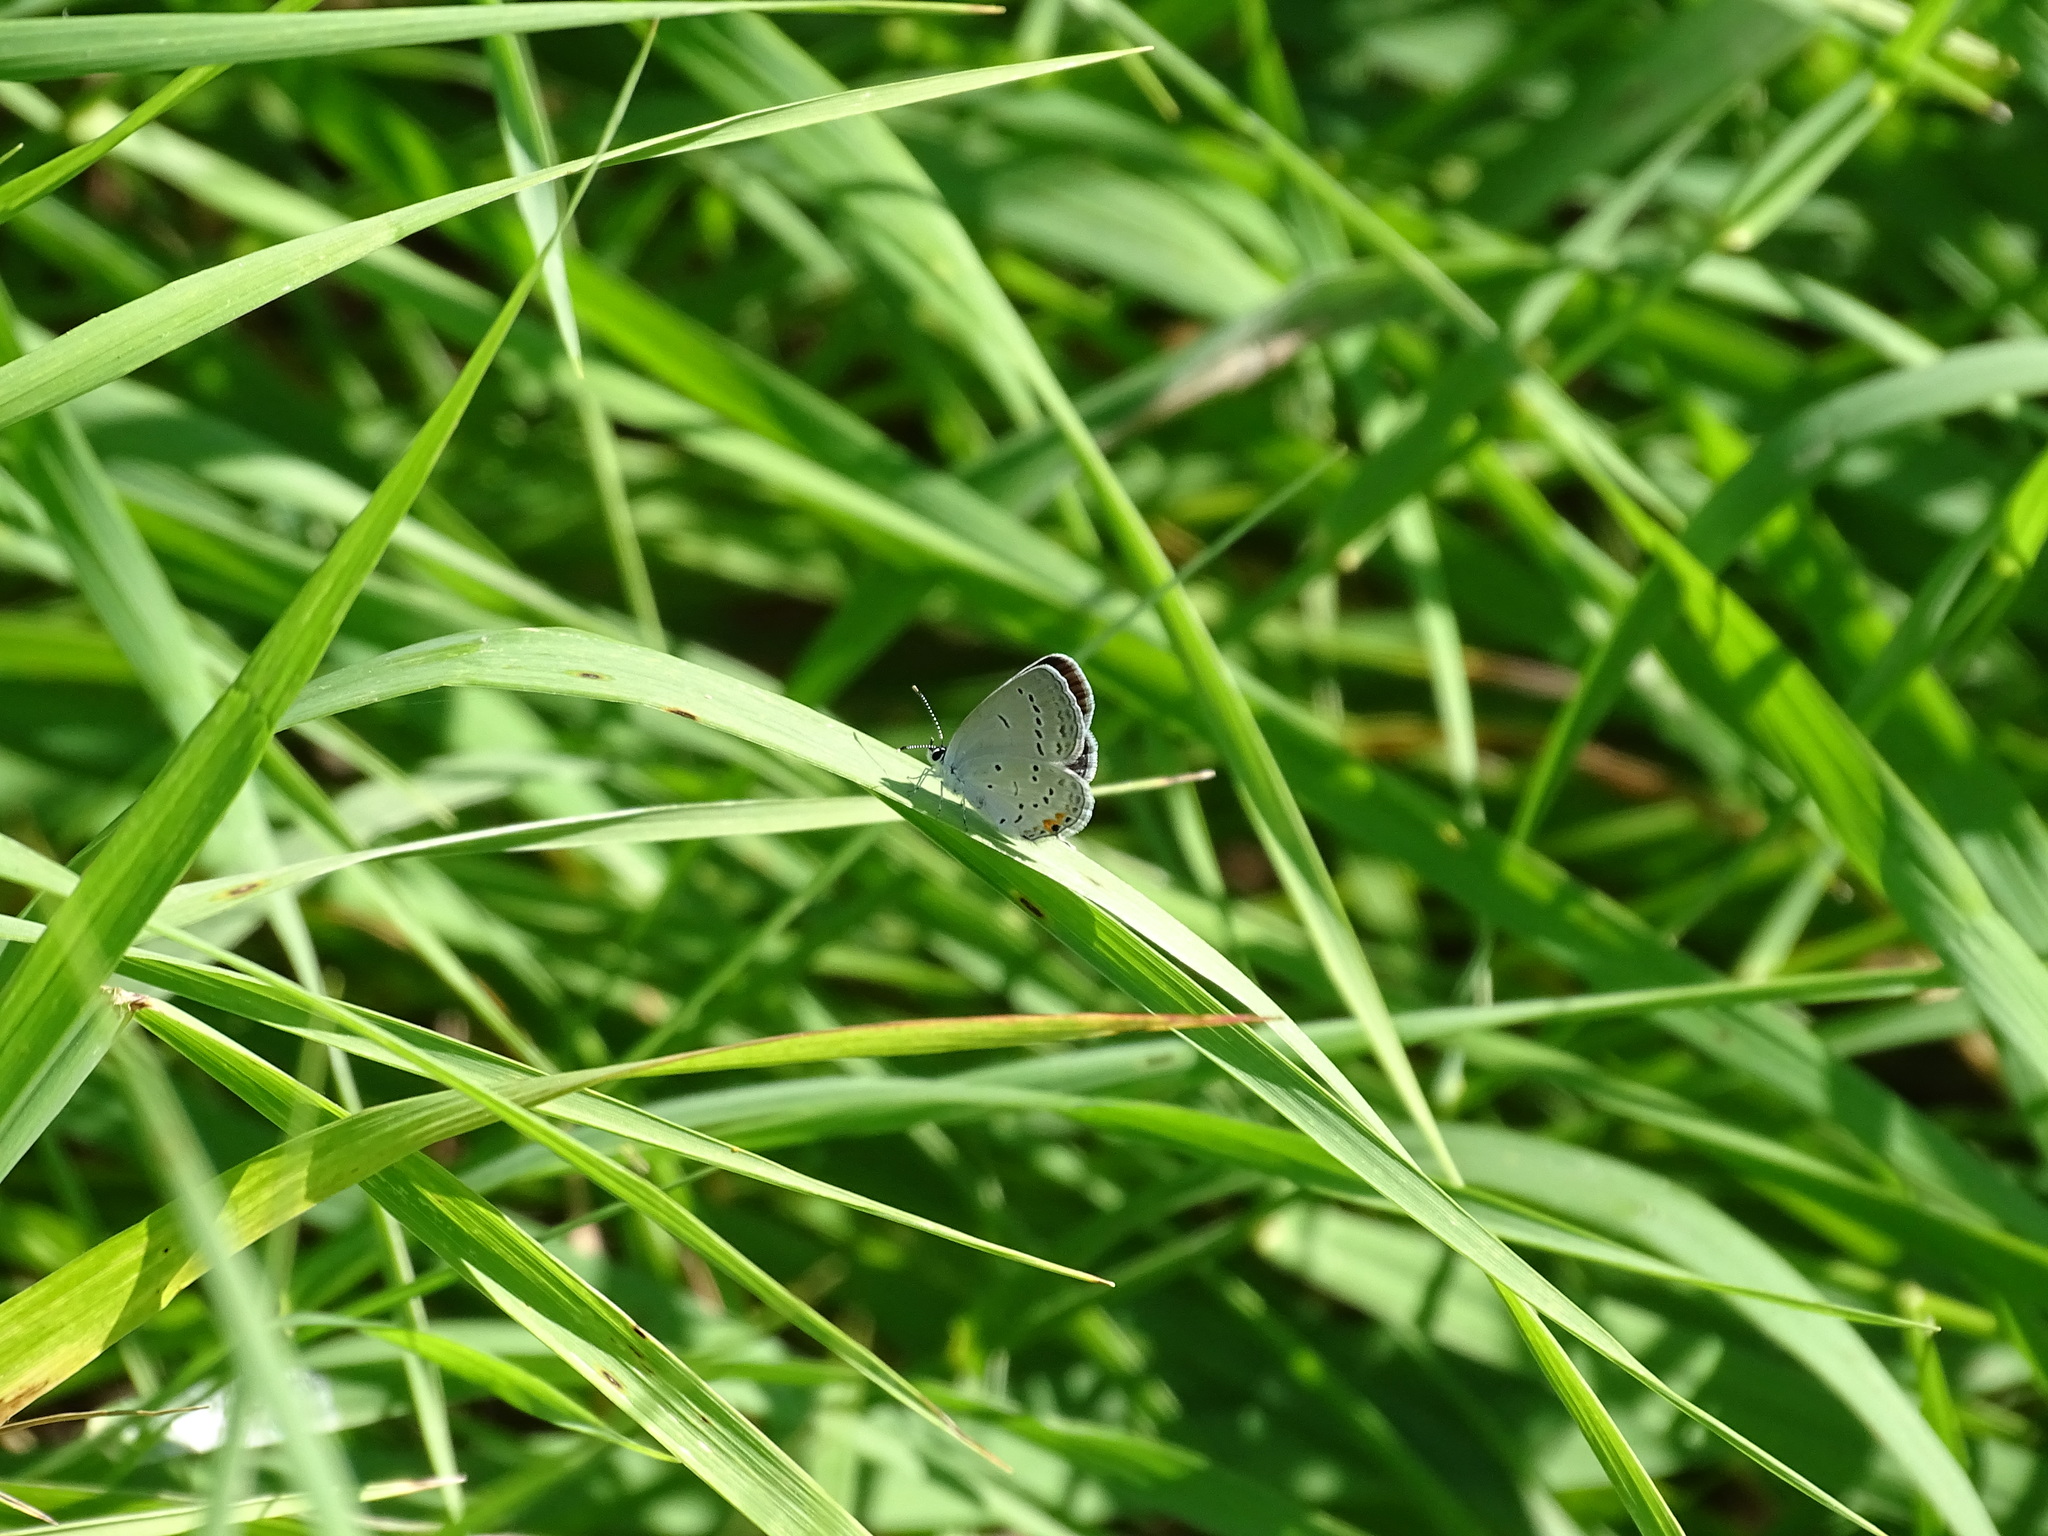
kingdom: Animalia
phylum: Arthropoda
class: Insecta
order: Lepidoptera
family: Lycaenidae
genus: Elkalyce
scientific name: Elkalyce comyntas
